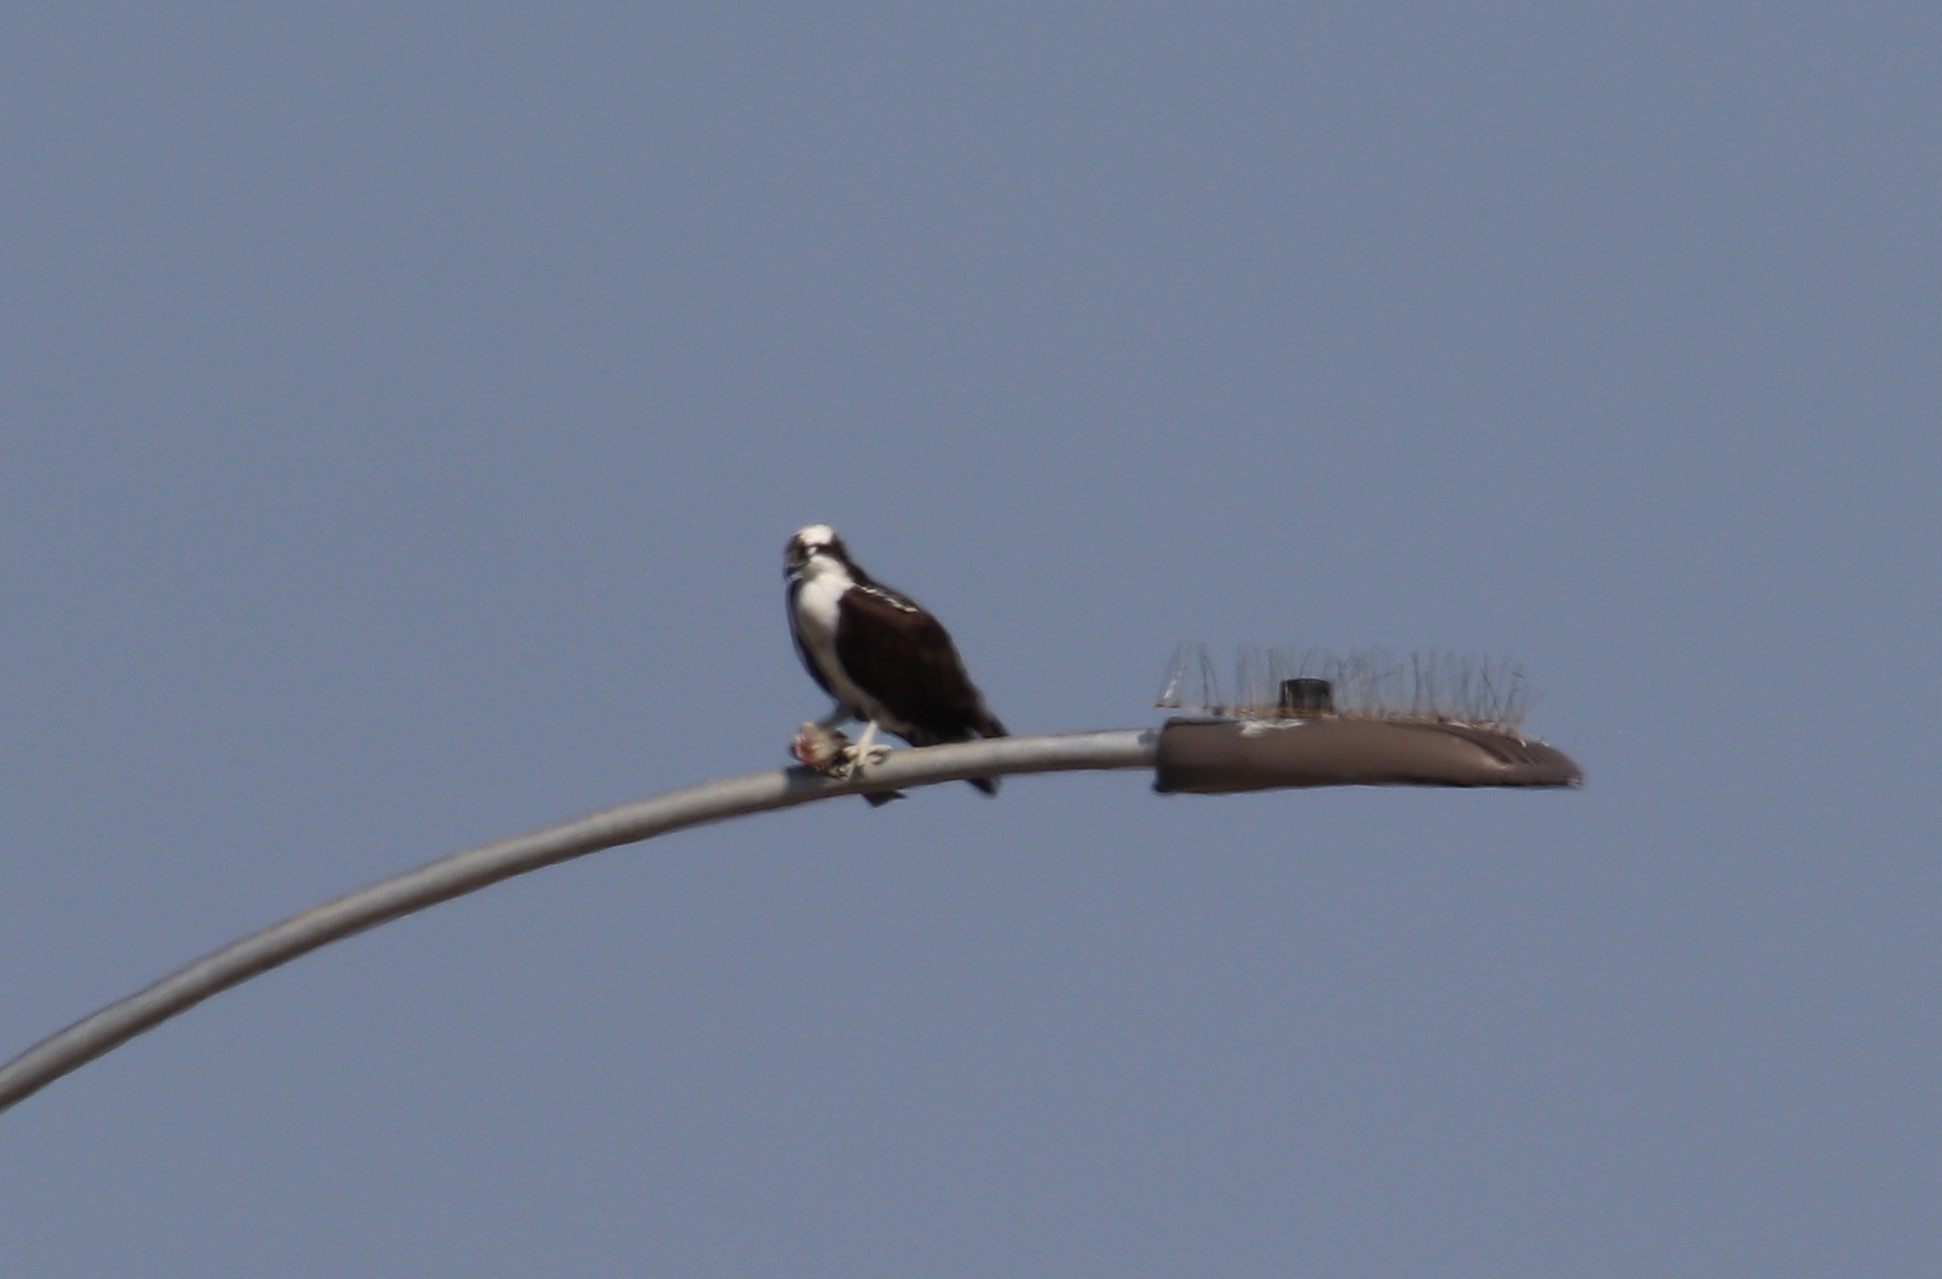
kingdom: Animalia
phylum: Chordata
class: Aves
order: Accipitriformes
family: Pandionidae
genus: Pandion
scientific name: Pandion haliaetus
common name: Osprey
